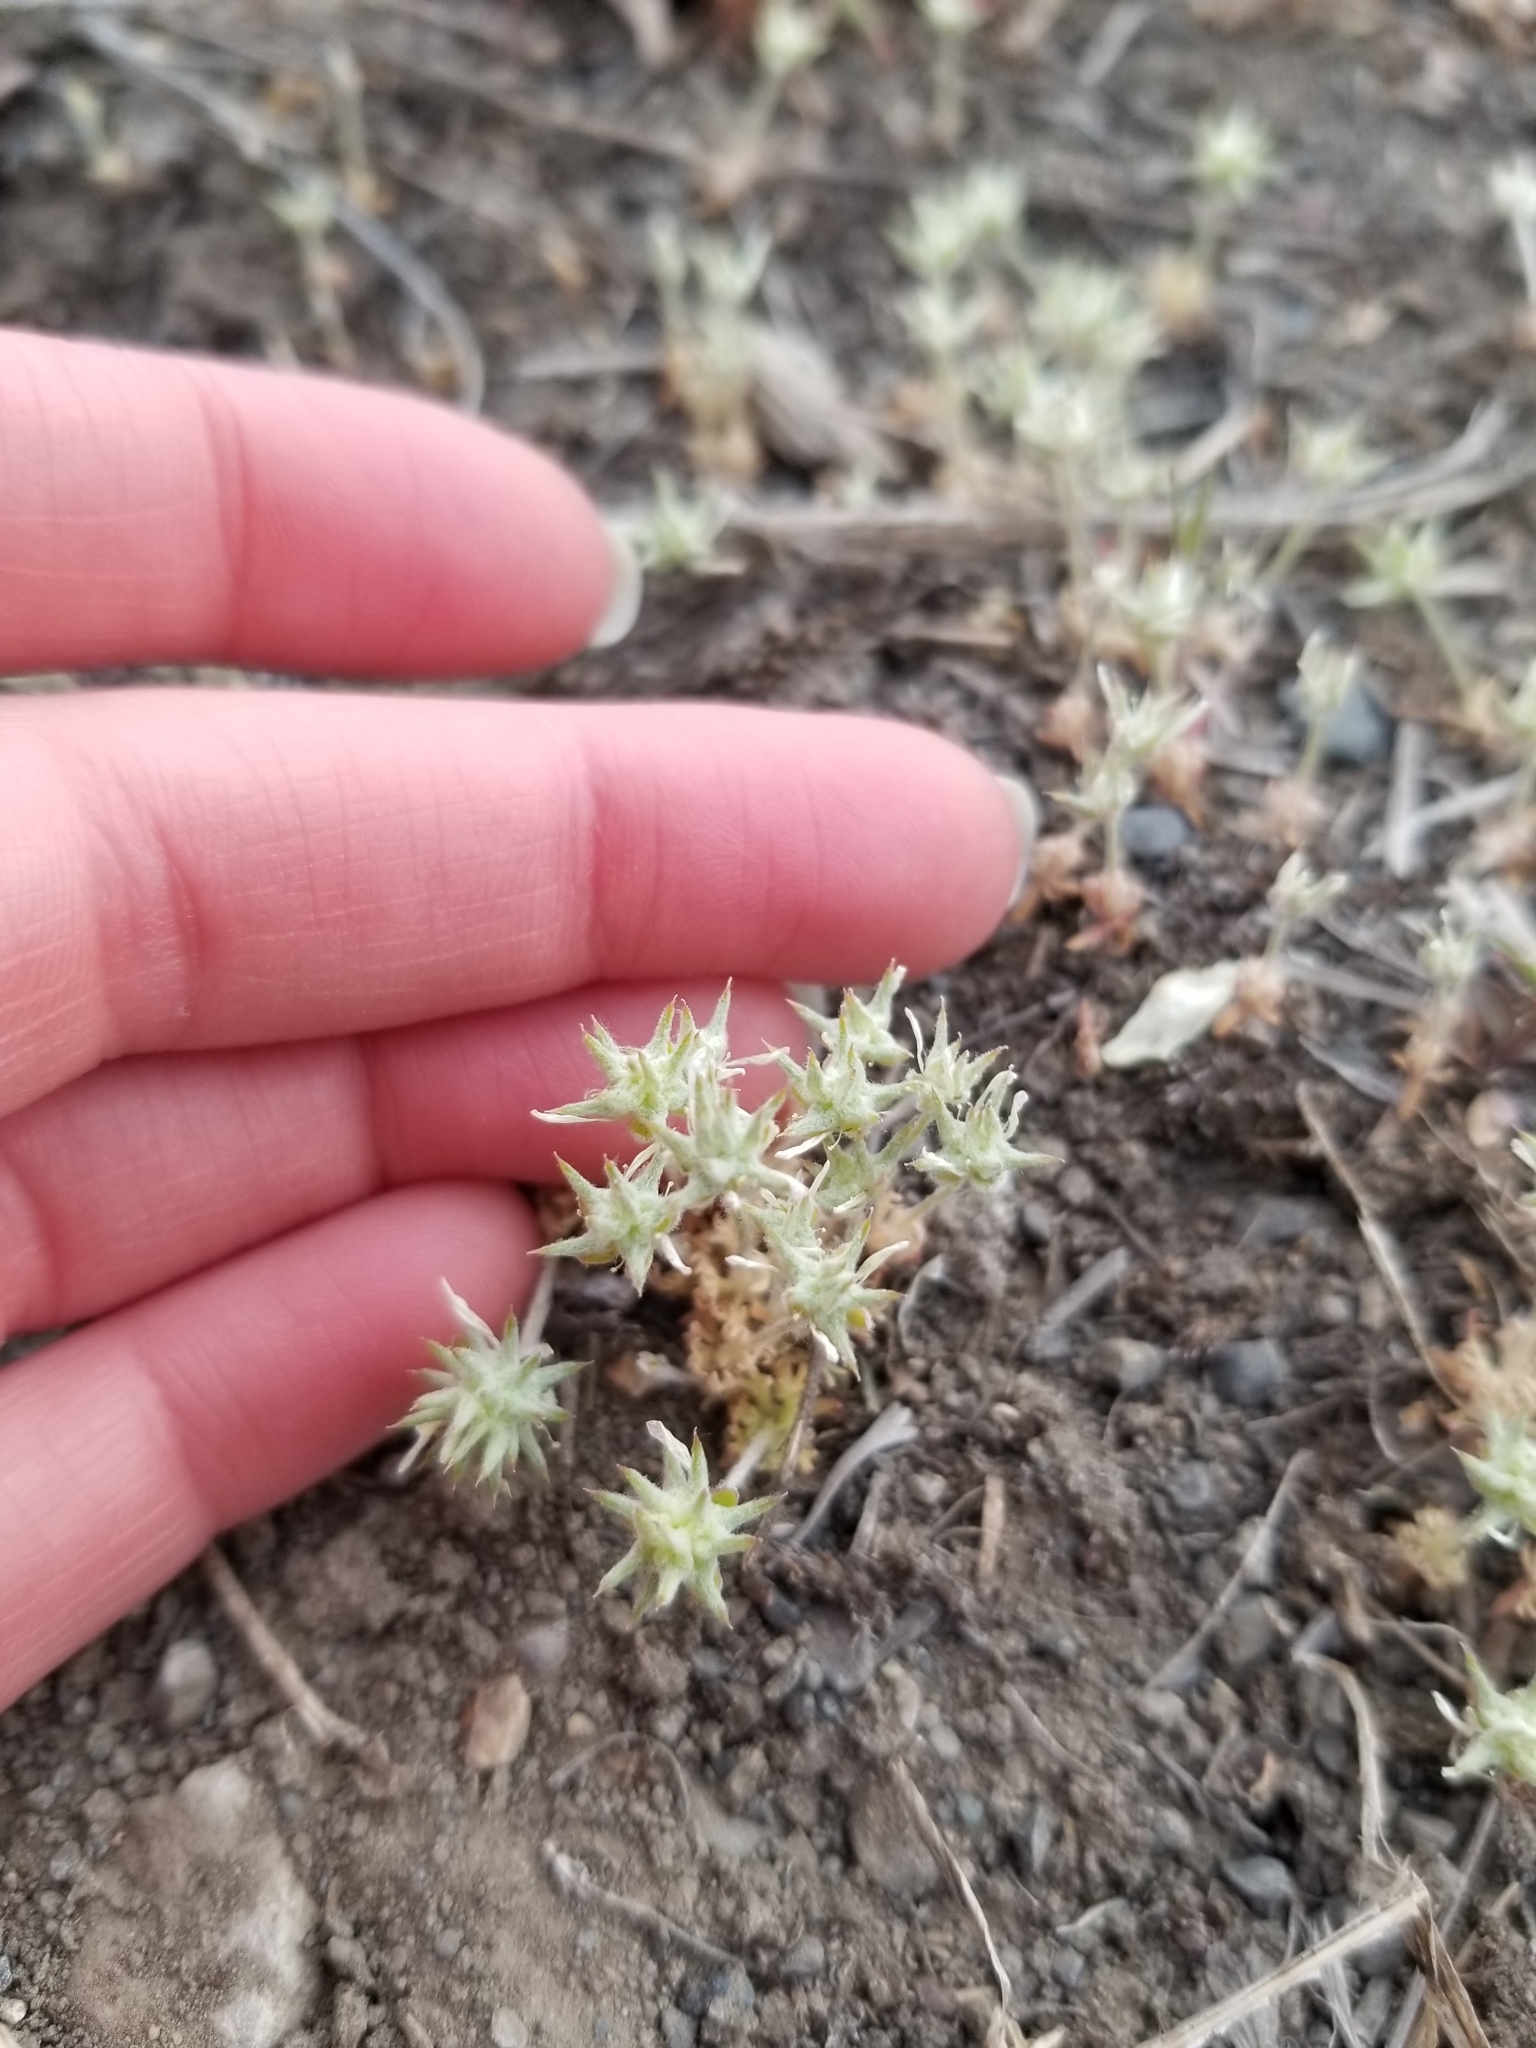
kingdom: Plantae
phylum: Tracheophyta
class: Magnoliopsida
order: Ranunculales
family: Ranunculaceae
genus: Ceratocephala
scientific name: Ceratocephala orthoceras
